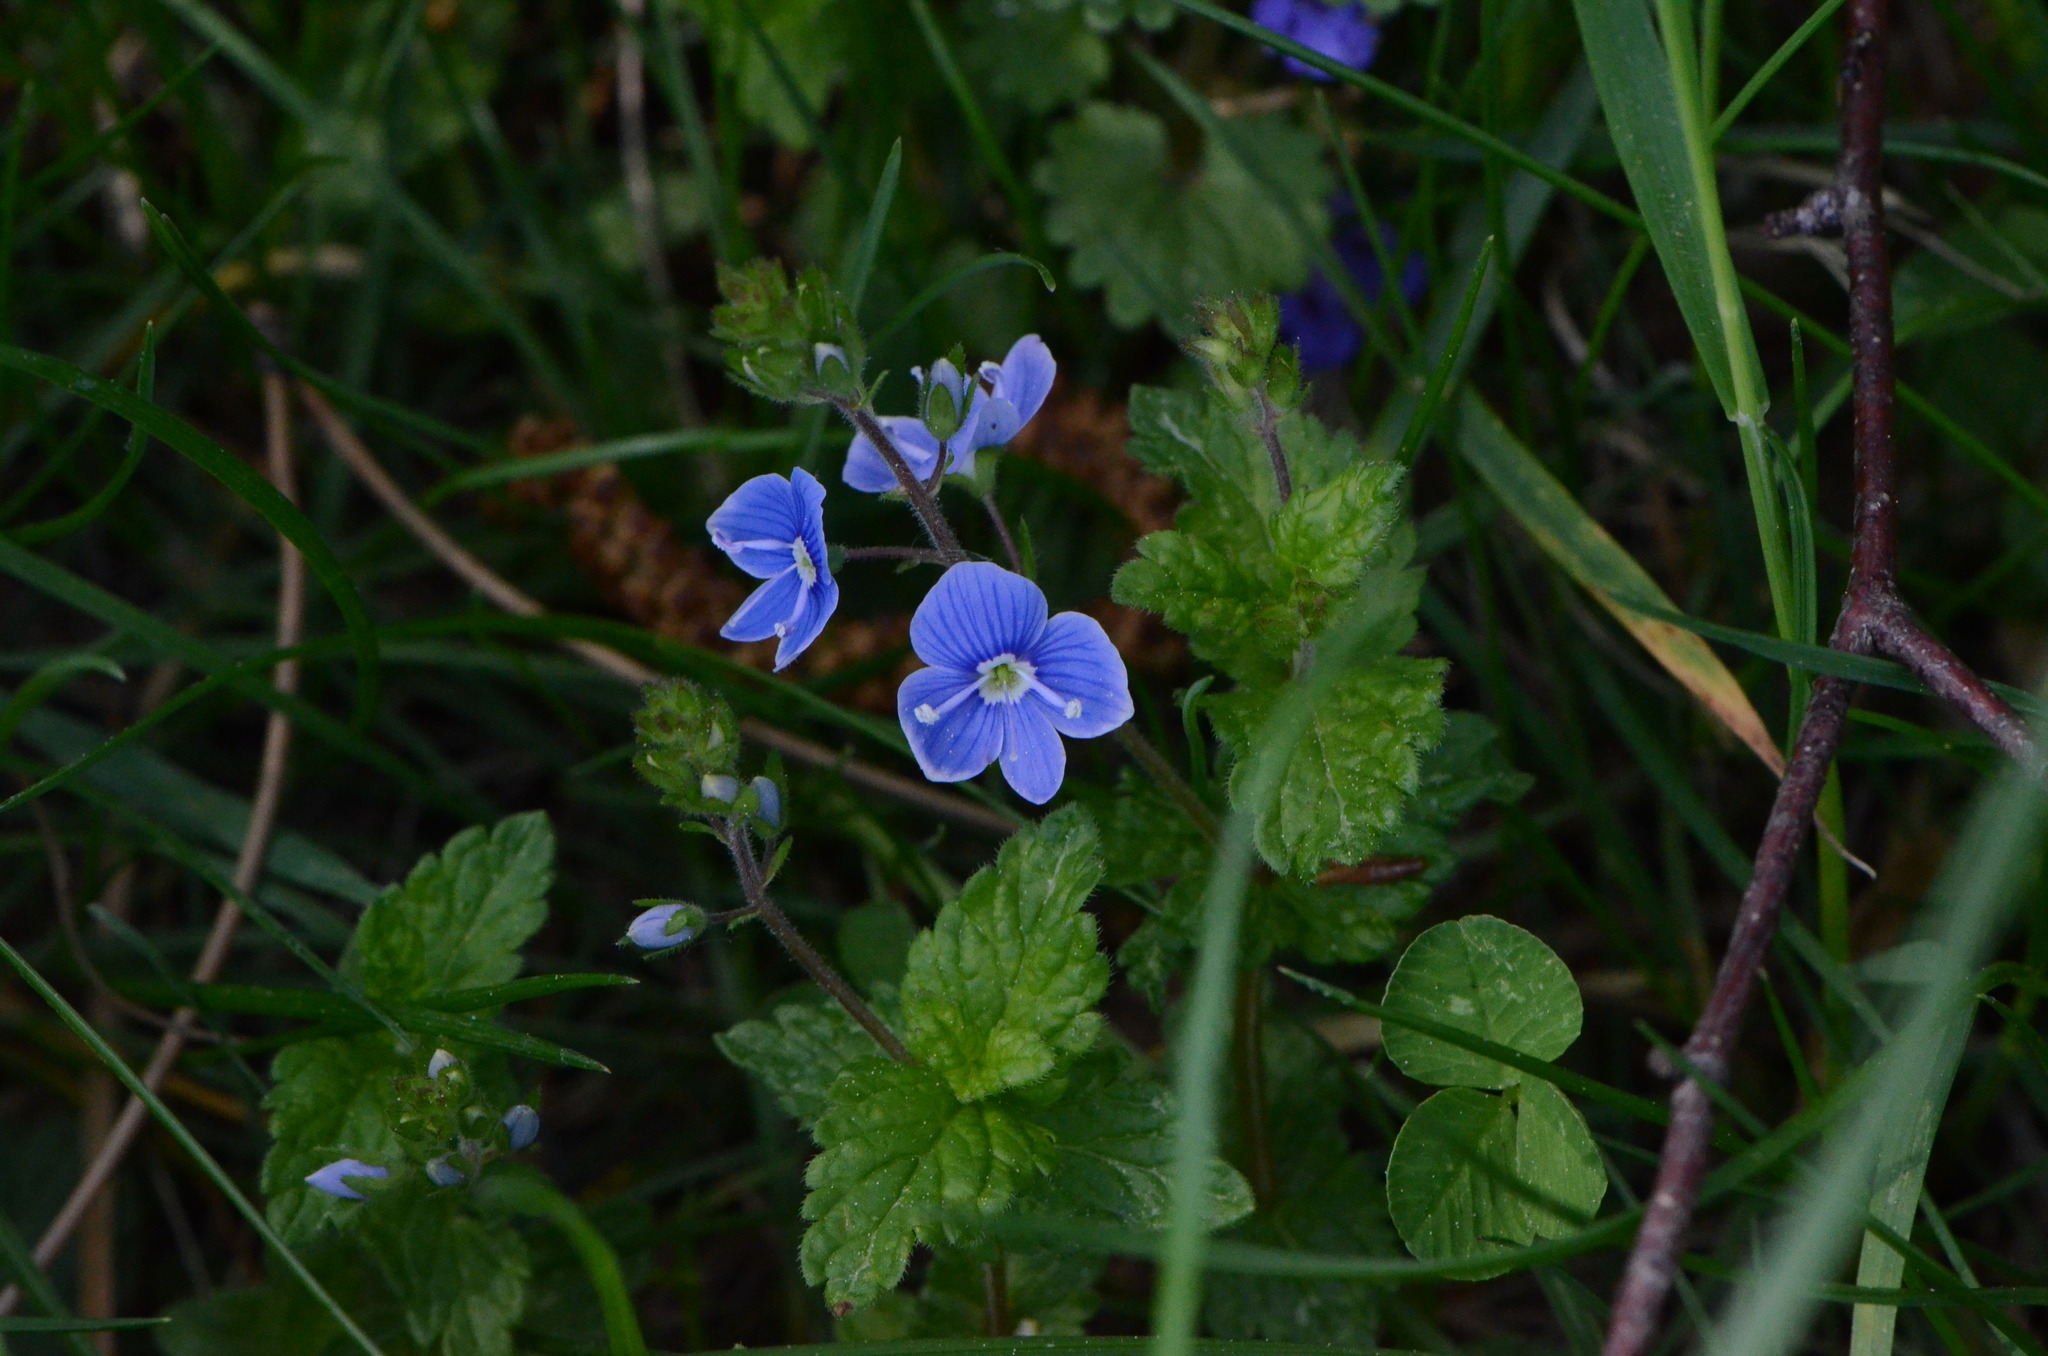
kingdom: Plantae
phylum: Tracheophyta
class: Magnoliopsida
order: Lamiales
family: Plantaginaceae
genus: Veronica
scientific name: Veronica chamaedrys
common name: Germander speedwell
